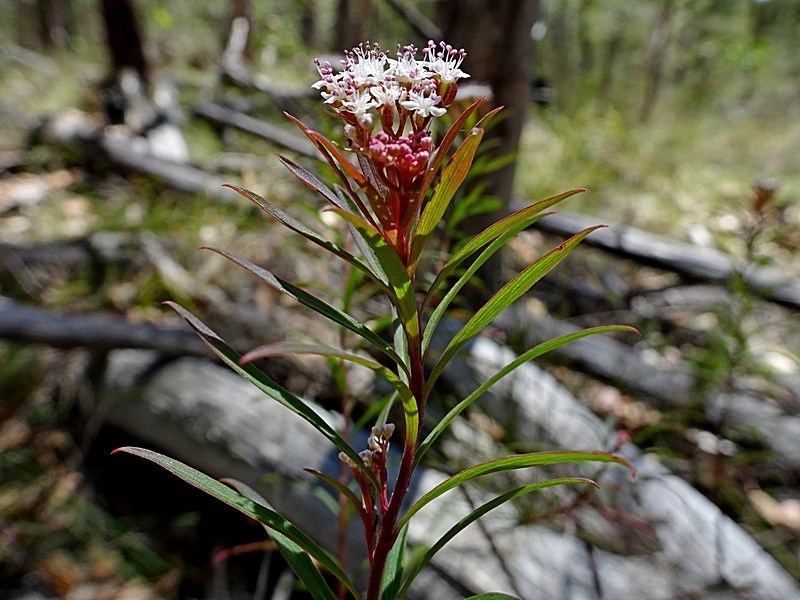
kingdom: Plantae
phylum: Tracheophyta
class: Magnoliopsida
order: Apiales
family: Apiaceae
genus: Platysace
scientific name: Platysace lanceolata
